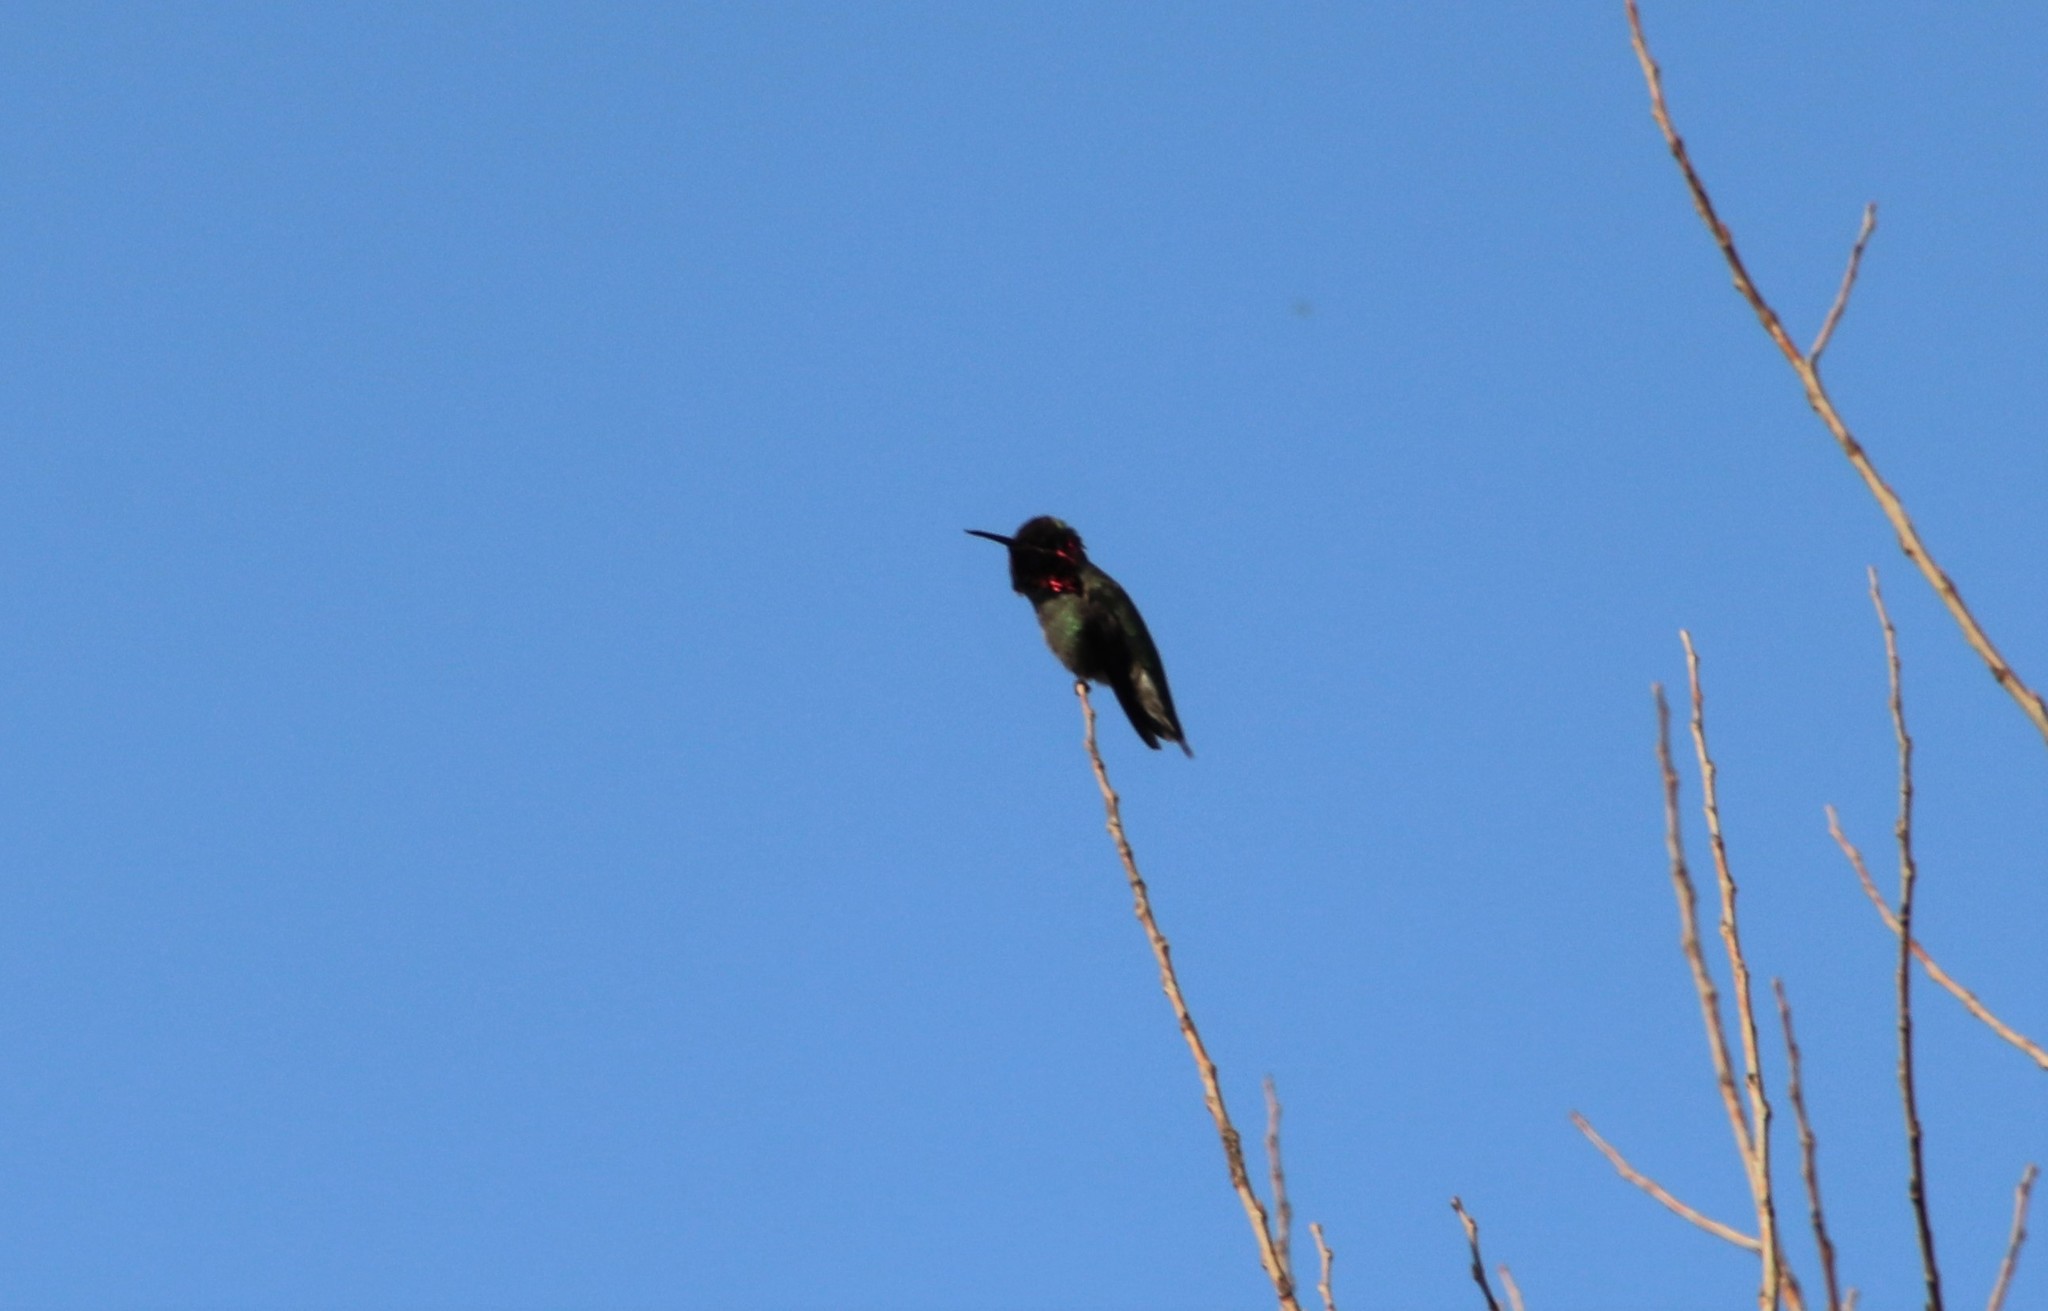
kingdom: Animalia
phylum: Chordata
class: Aves
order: Apodiformes
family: Trochilidae
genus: Calypte
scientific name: Calypte anna
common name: Anna's hummingbird
